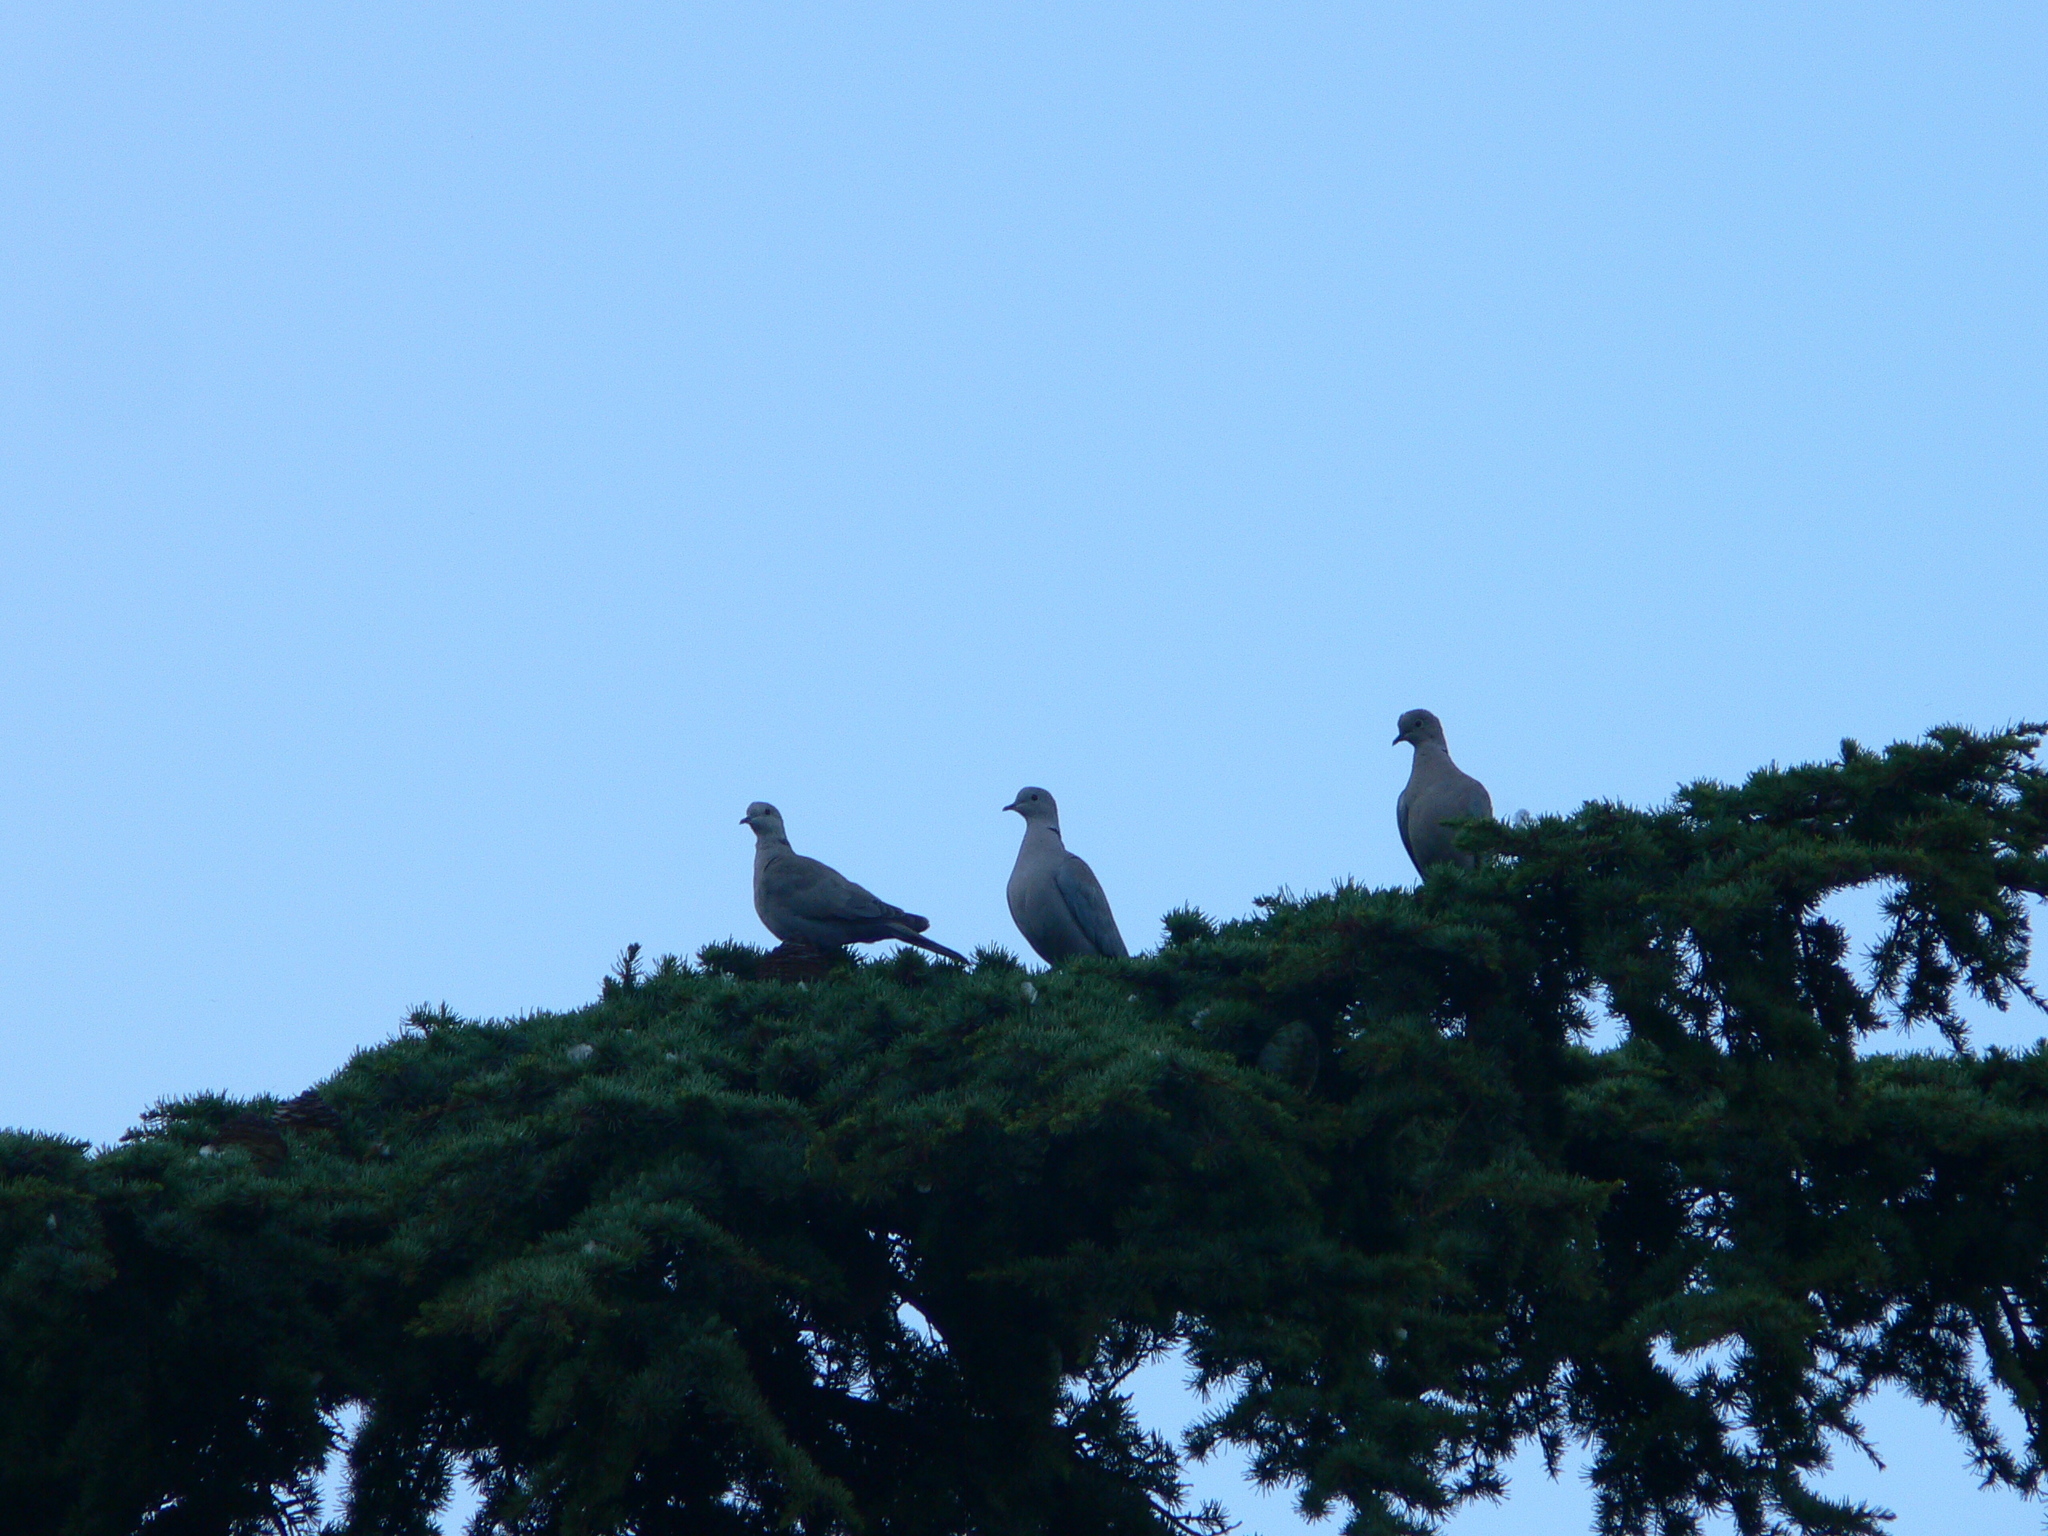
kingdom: Animalia
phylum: Chordata
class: Aves
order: Columbiformes
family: Columbidae
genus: Streptopelia
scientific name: Streptopelia decaocto
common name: Eurasian collared dove
